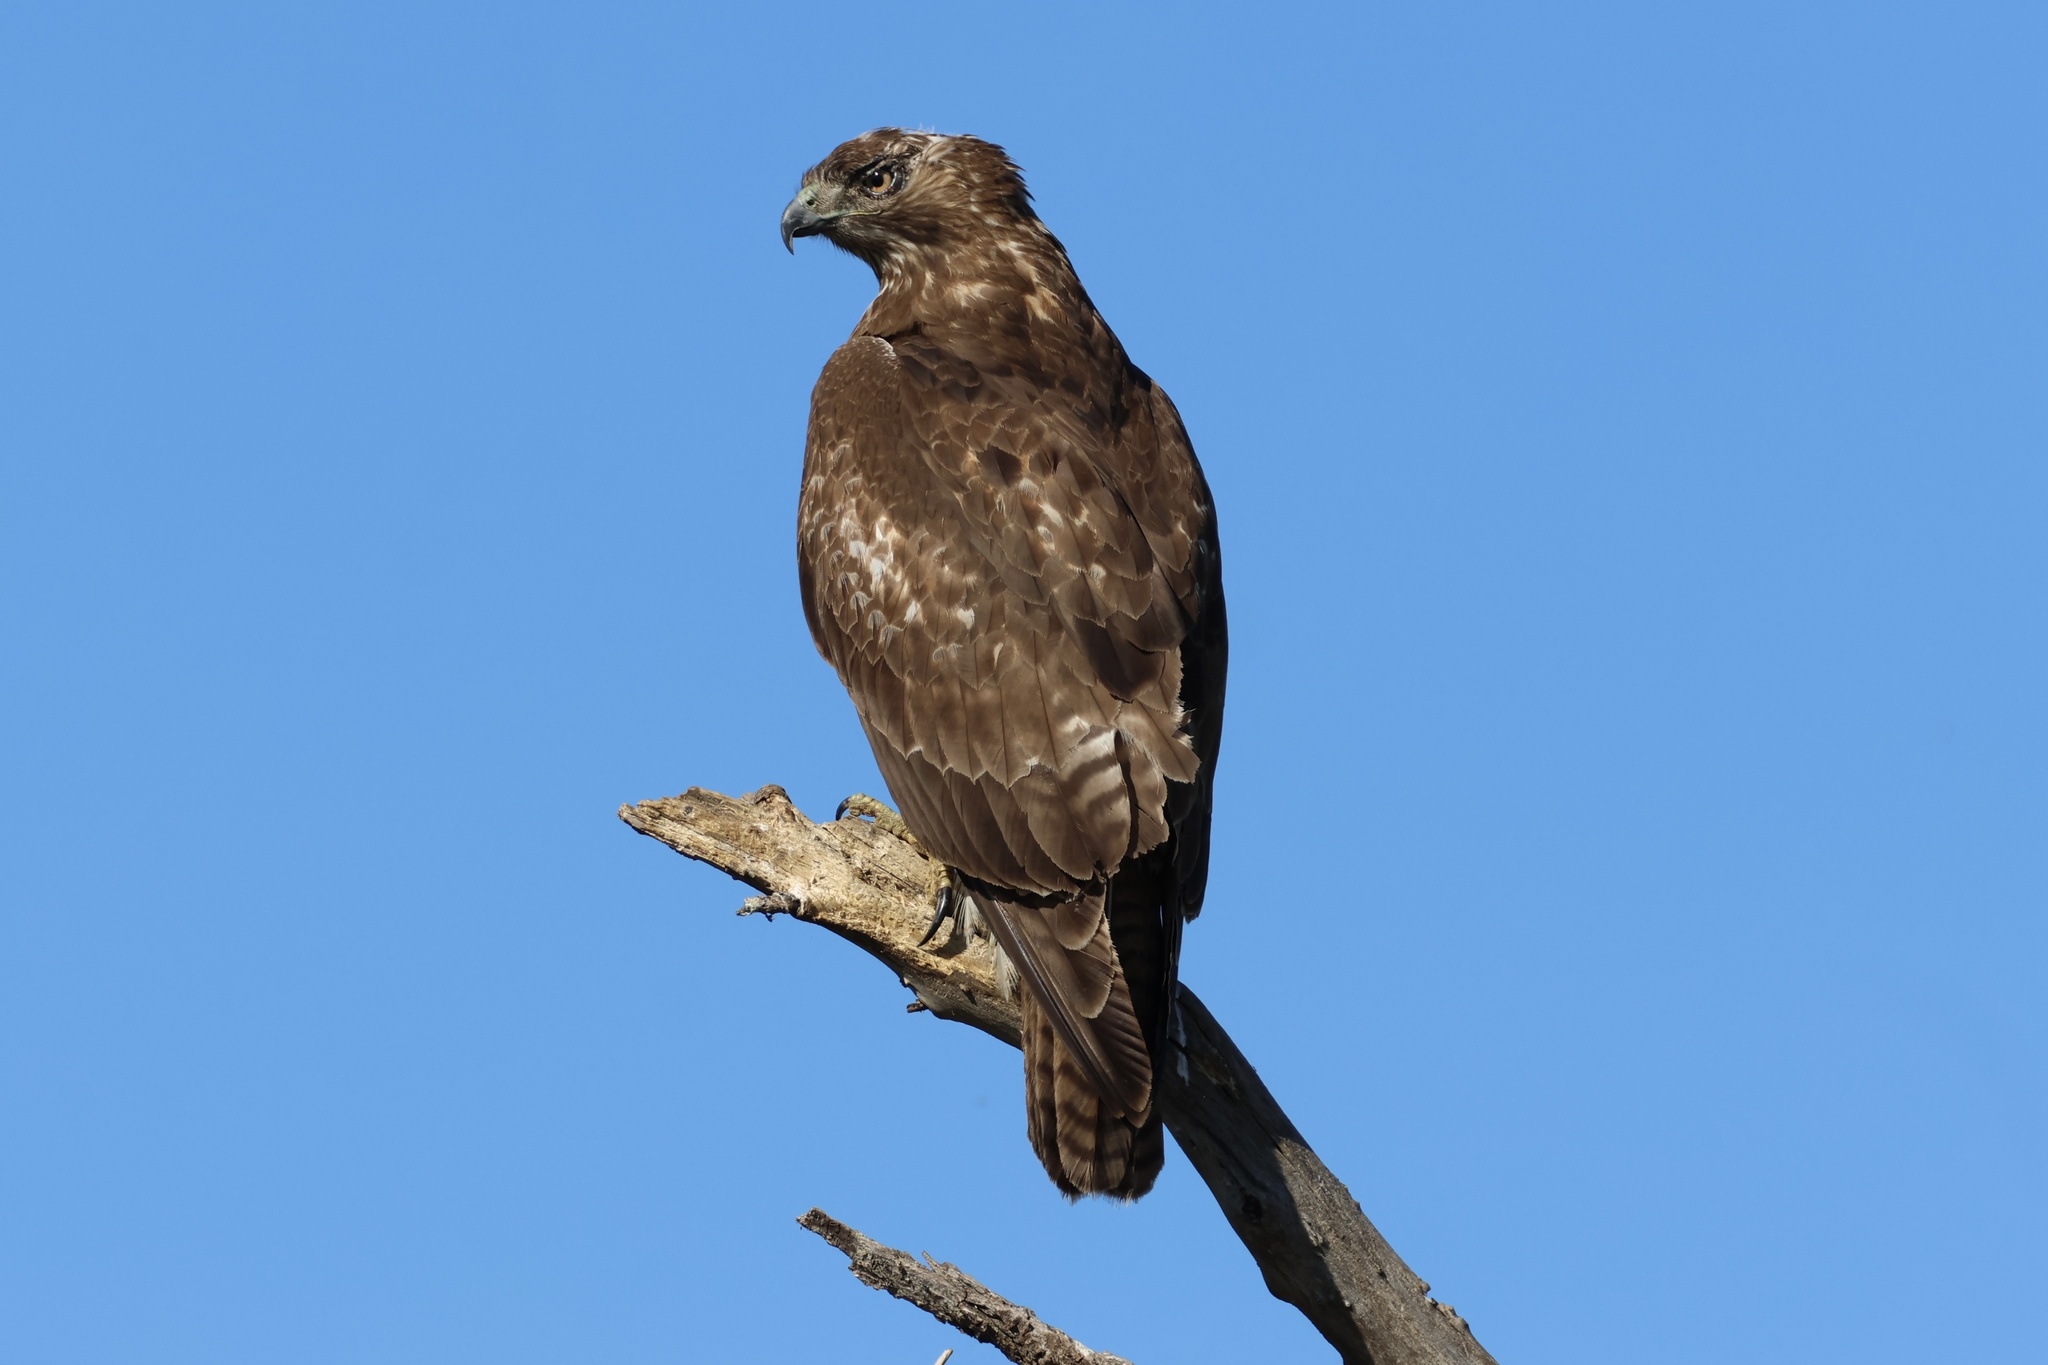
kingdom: Animalia
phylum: Chordata
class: Aves
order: Accipitriformes
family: Accipitridae
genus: Buteo
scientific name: Buteo jamaicensis
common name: Red-tailed hawk
